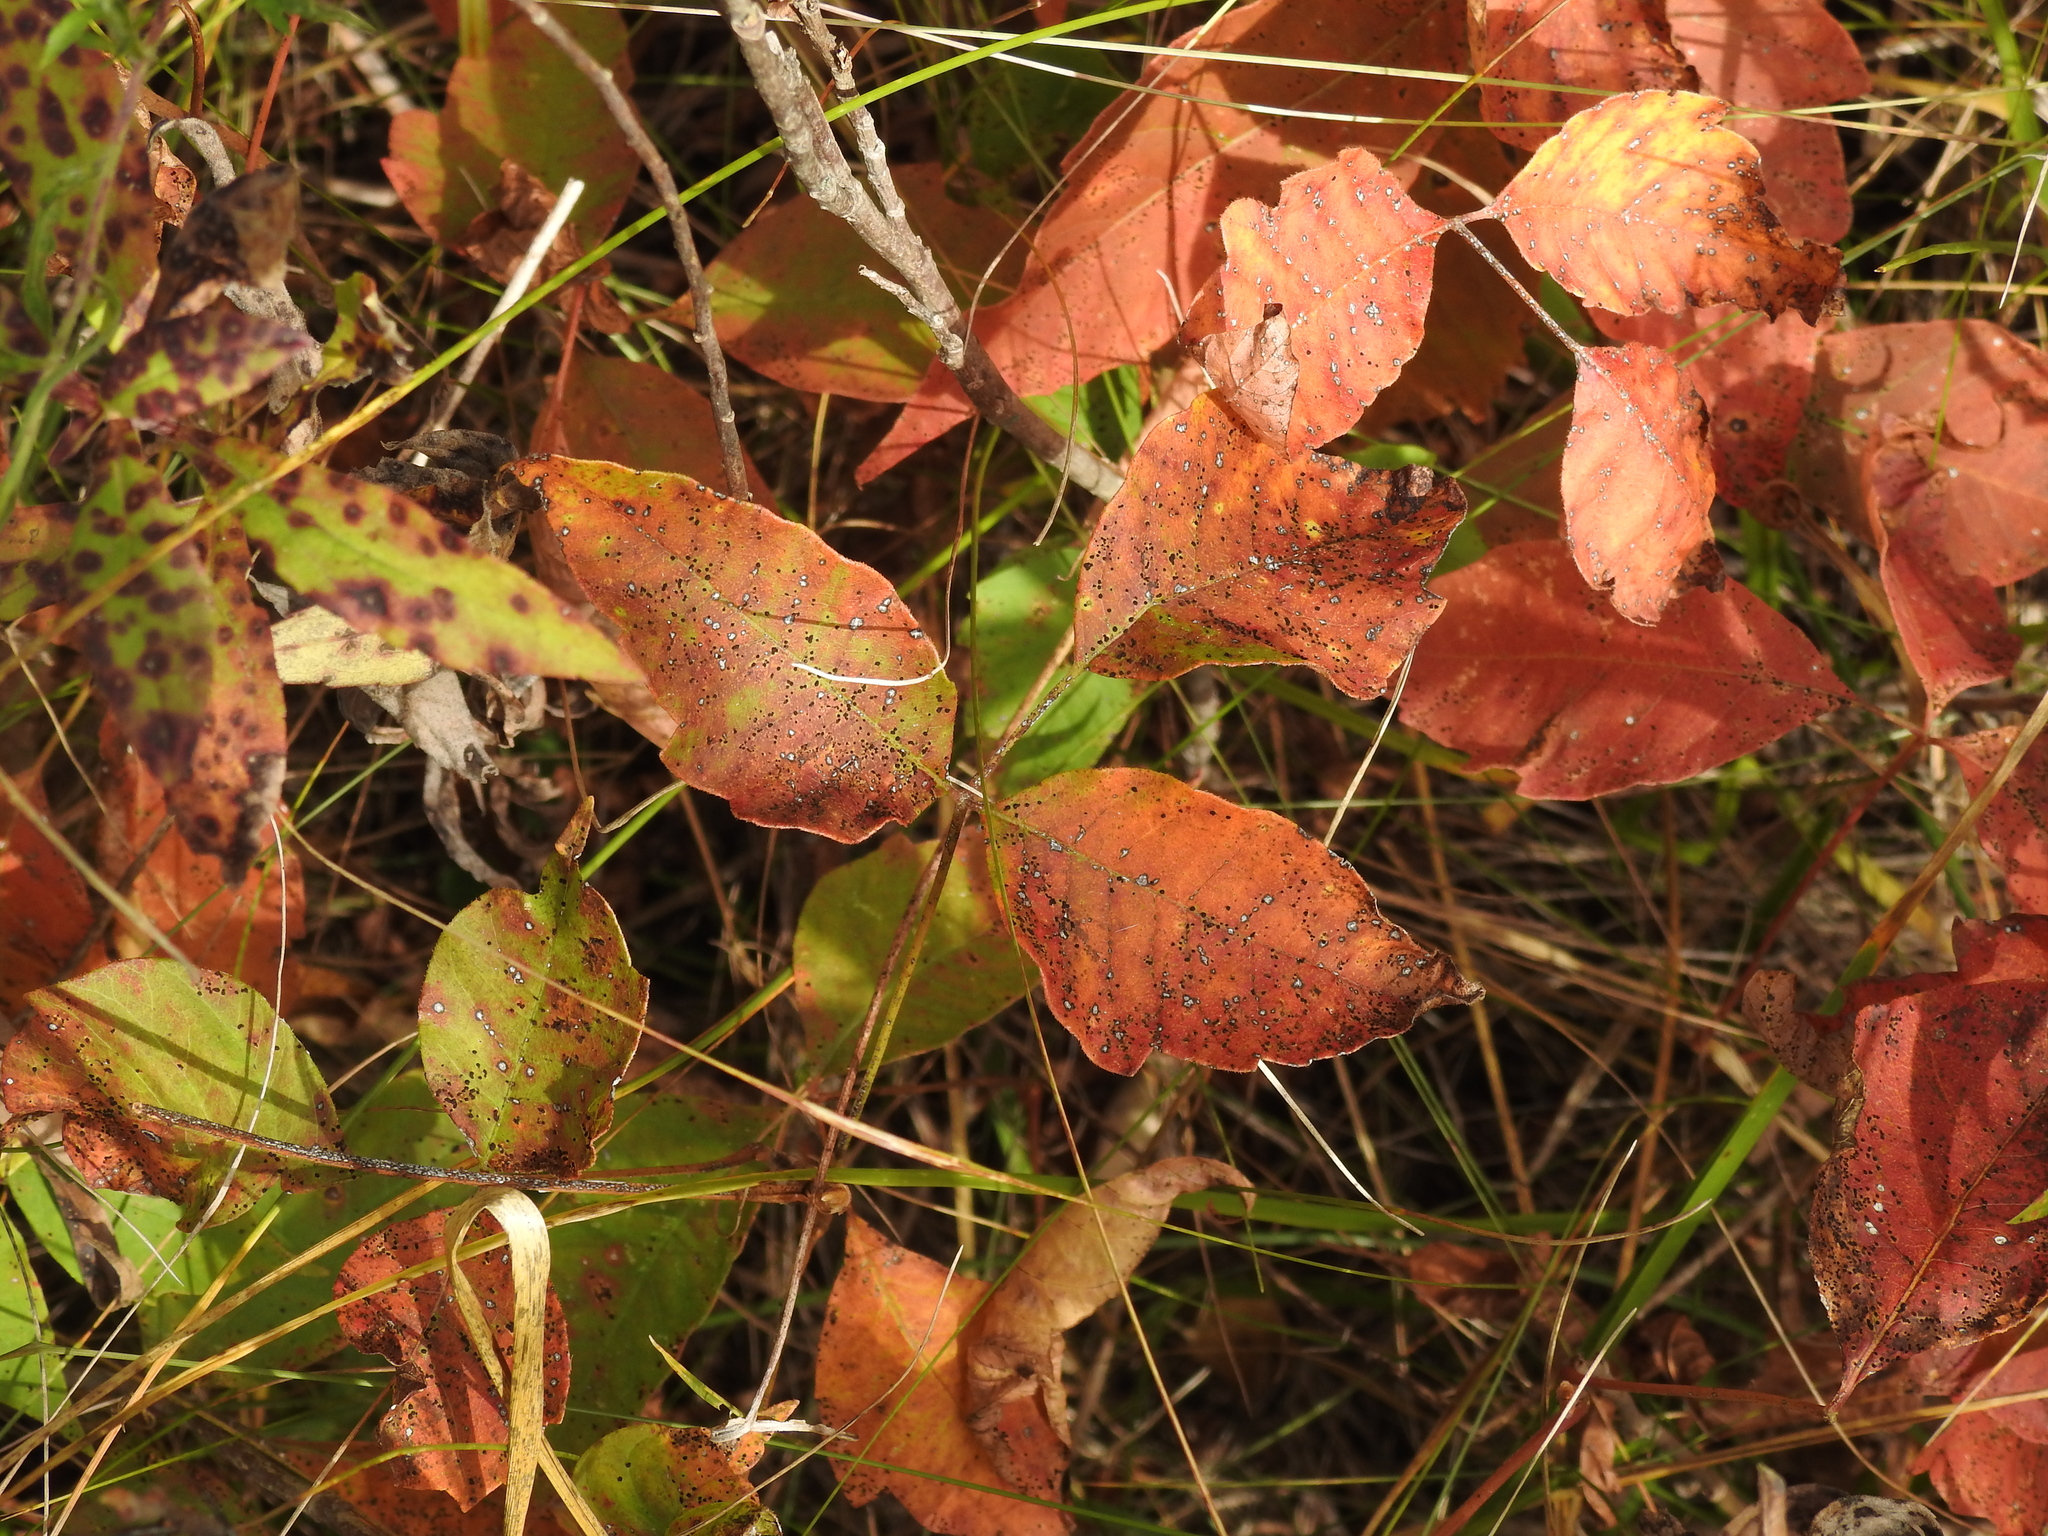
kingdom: Plantae
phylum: Tracheophyta
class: Magnoliopsida
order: Sapindales
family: Anacardiaceae
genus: Toxicodendron
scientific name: Toxicodendron radicans
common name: Poison ivy
